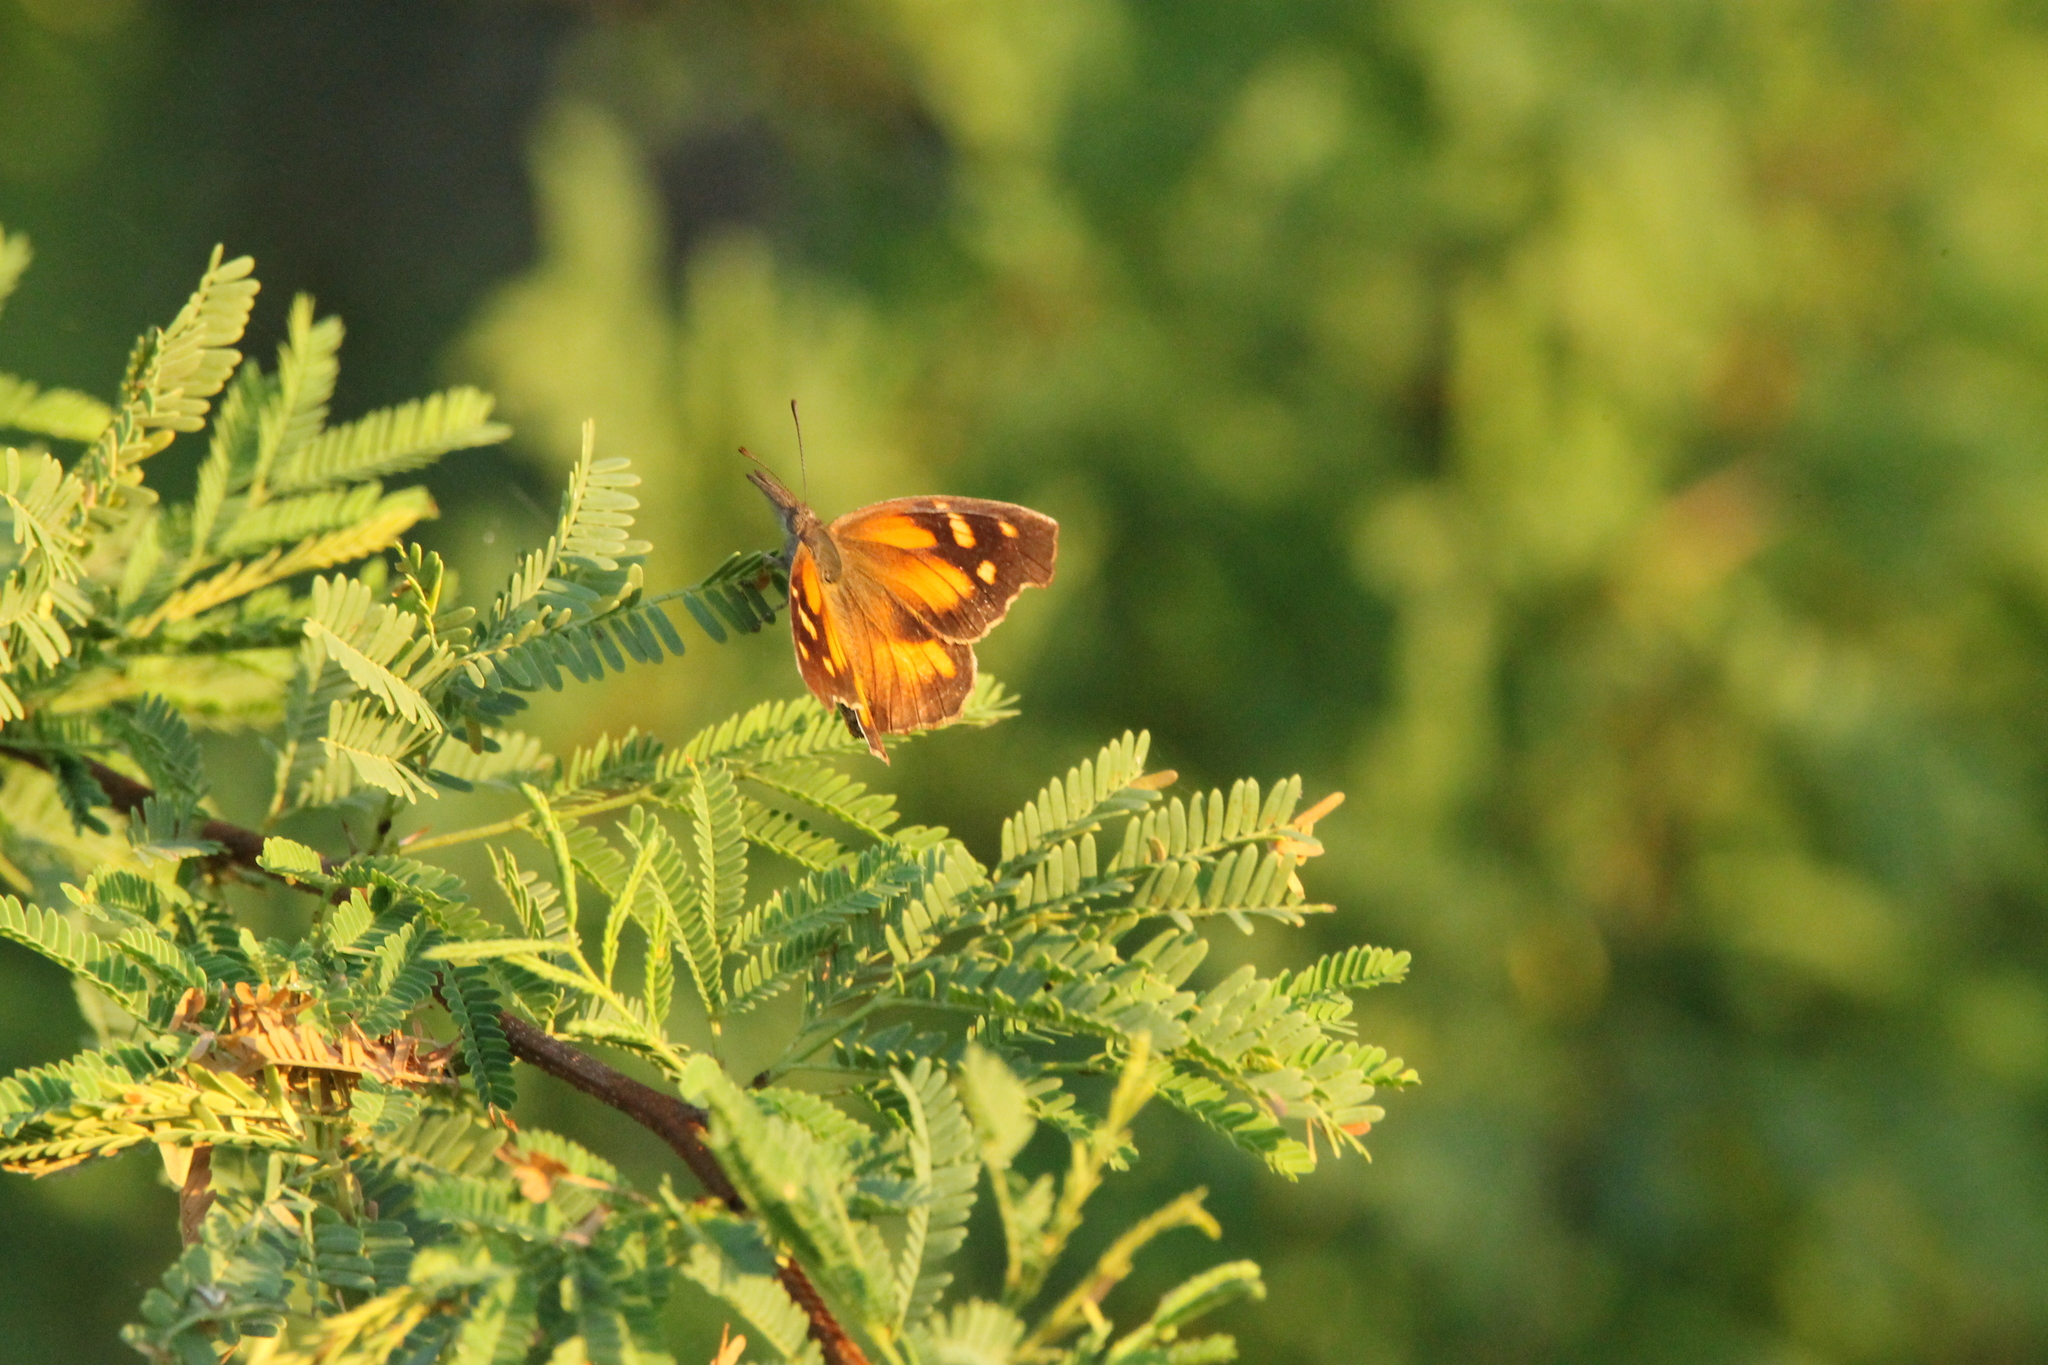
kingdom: Animalia
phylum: Arthropoda
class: Insecta
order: Lepidoptera
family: Nymphalidae
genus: Libytheana
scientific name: Libytheana carinenta
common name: American snout
